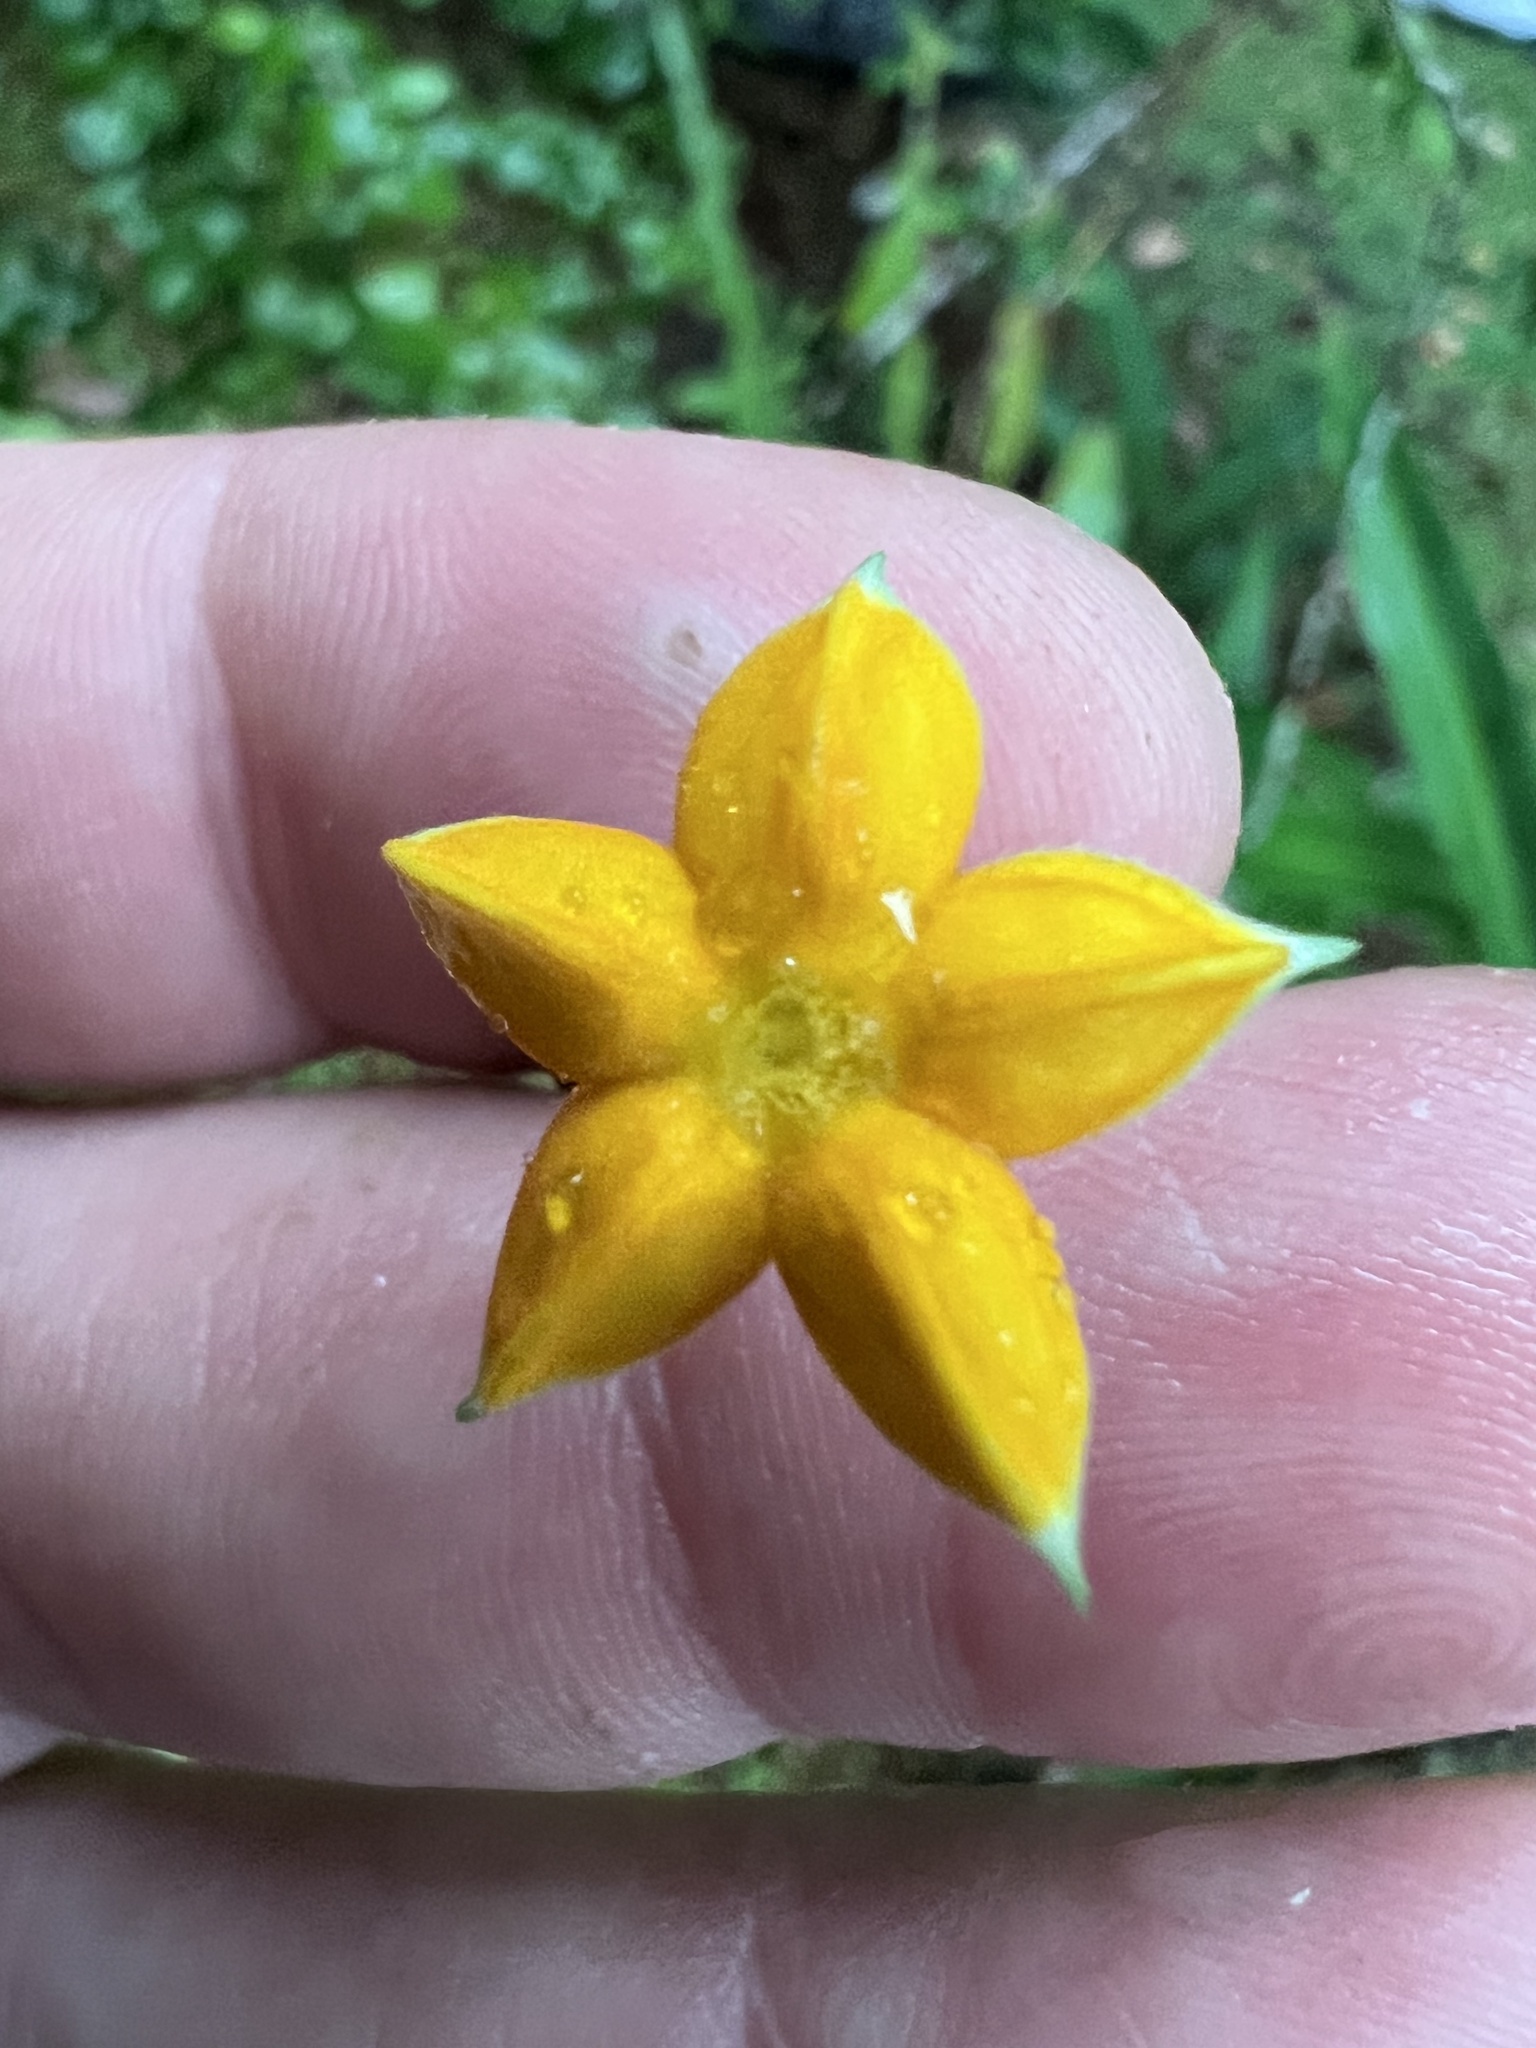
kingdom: Plantae
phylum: Tracheophyta
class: Magnoliopsida
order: Gentianales
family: Rubiaceae
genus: Mussaenda
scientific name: Mussaenda philippica
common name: Philippine mussaenda
